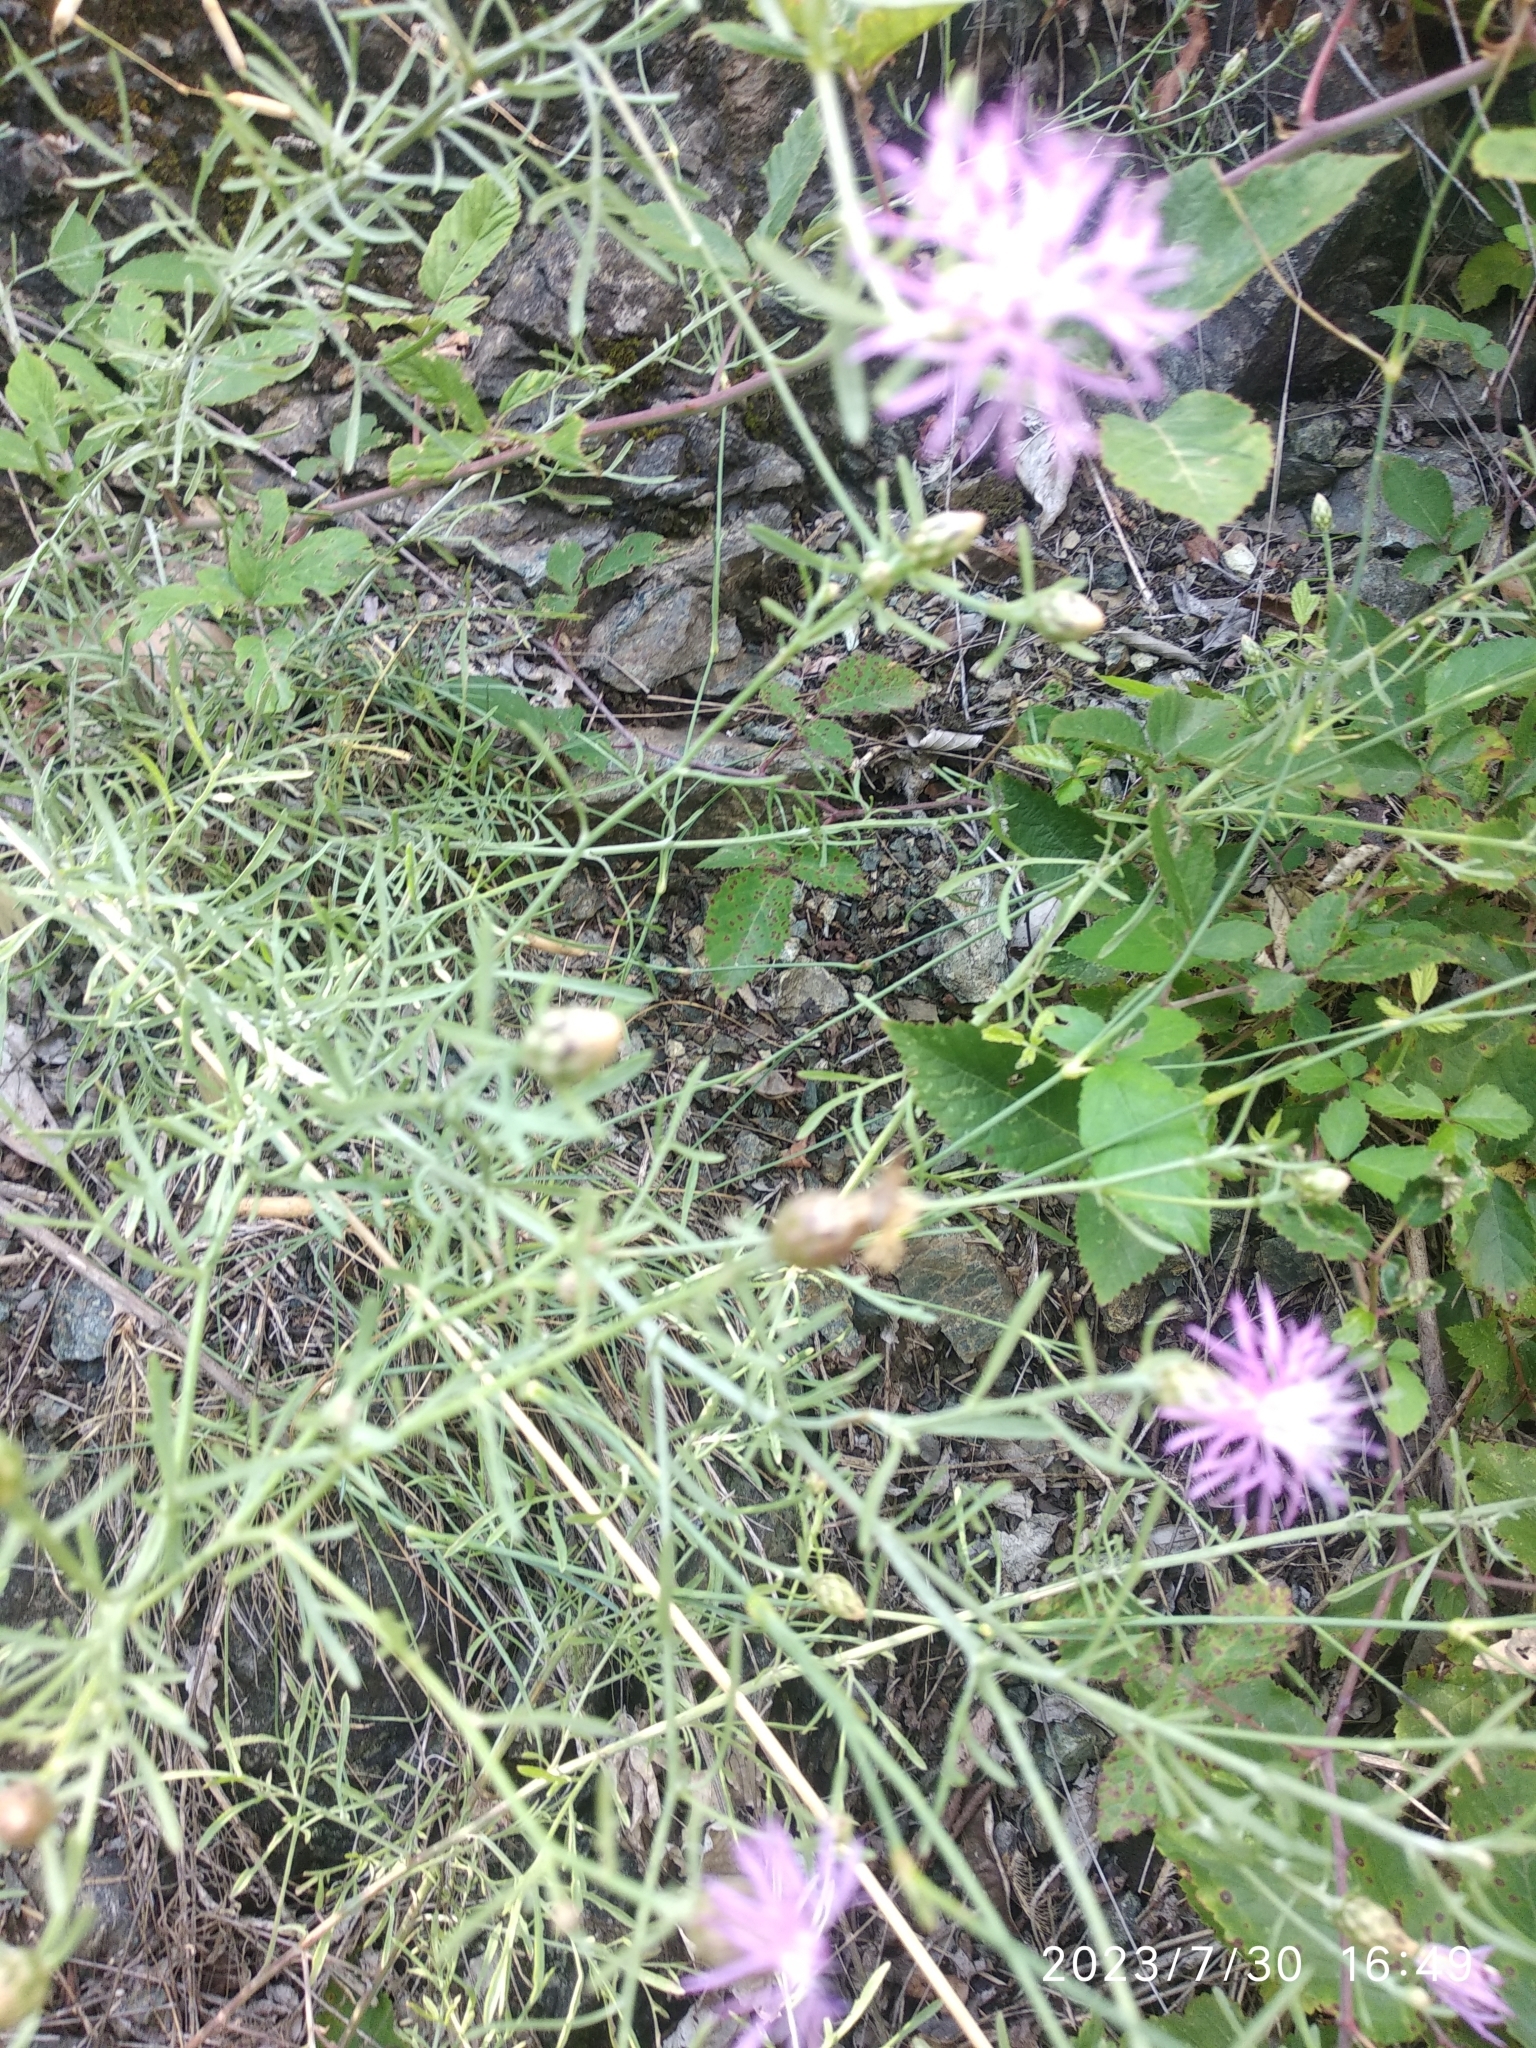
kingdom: Plantae
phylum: Tracheophyta
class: Magnoliopsida
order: Asterales
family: Asteraceae
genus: Centaurea
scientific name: Centaurea stoebe
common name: Spotted knapweed
